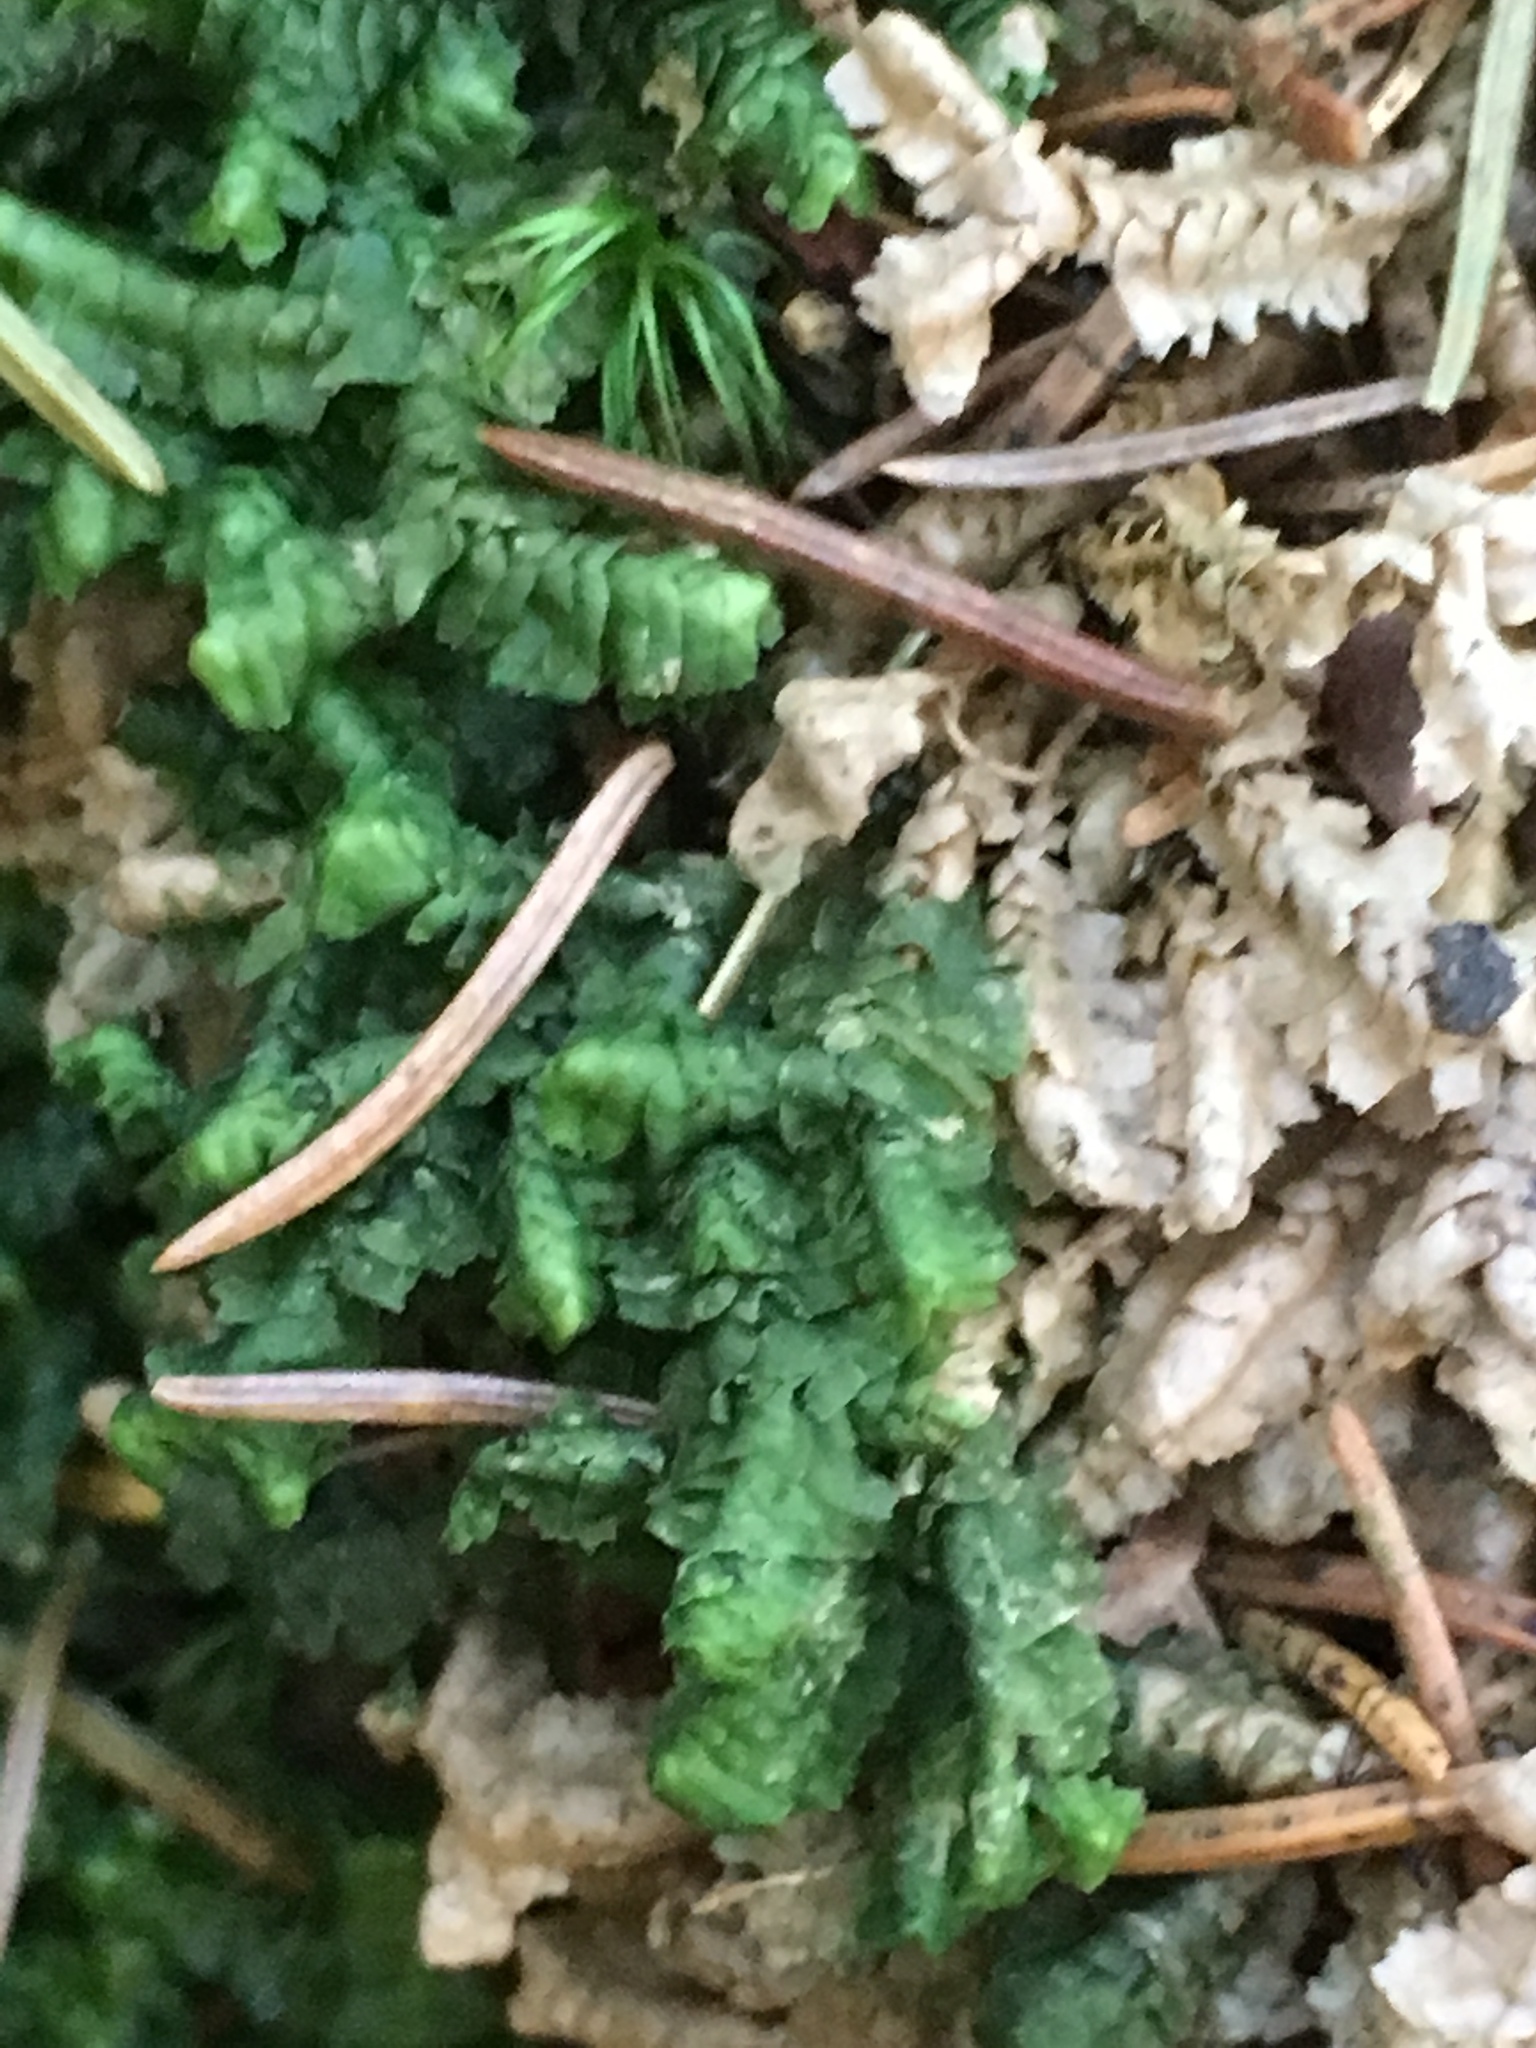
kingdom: Plantae
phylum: Marchantiophyta
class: Jungermanniopsida
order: Jungermanniales
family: Lepidoziaceae
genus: Bazzania
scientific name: Bazzania trilobata
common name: Three-lobed whipwort
